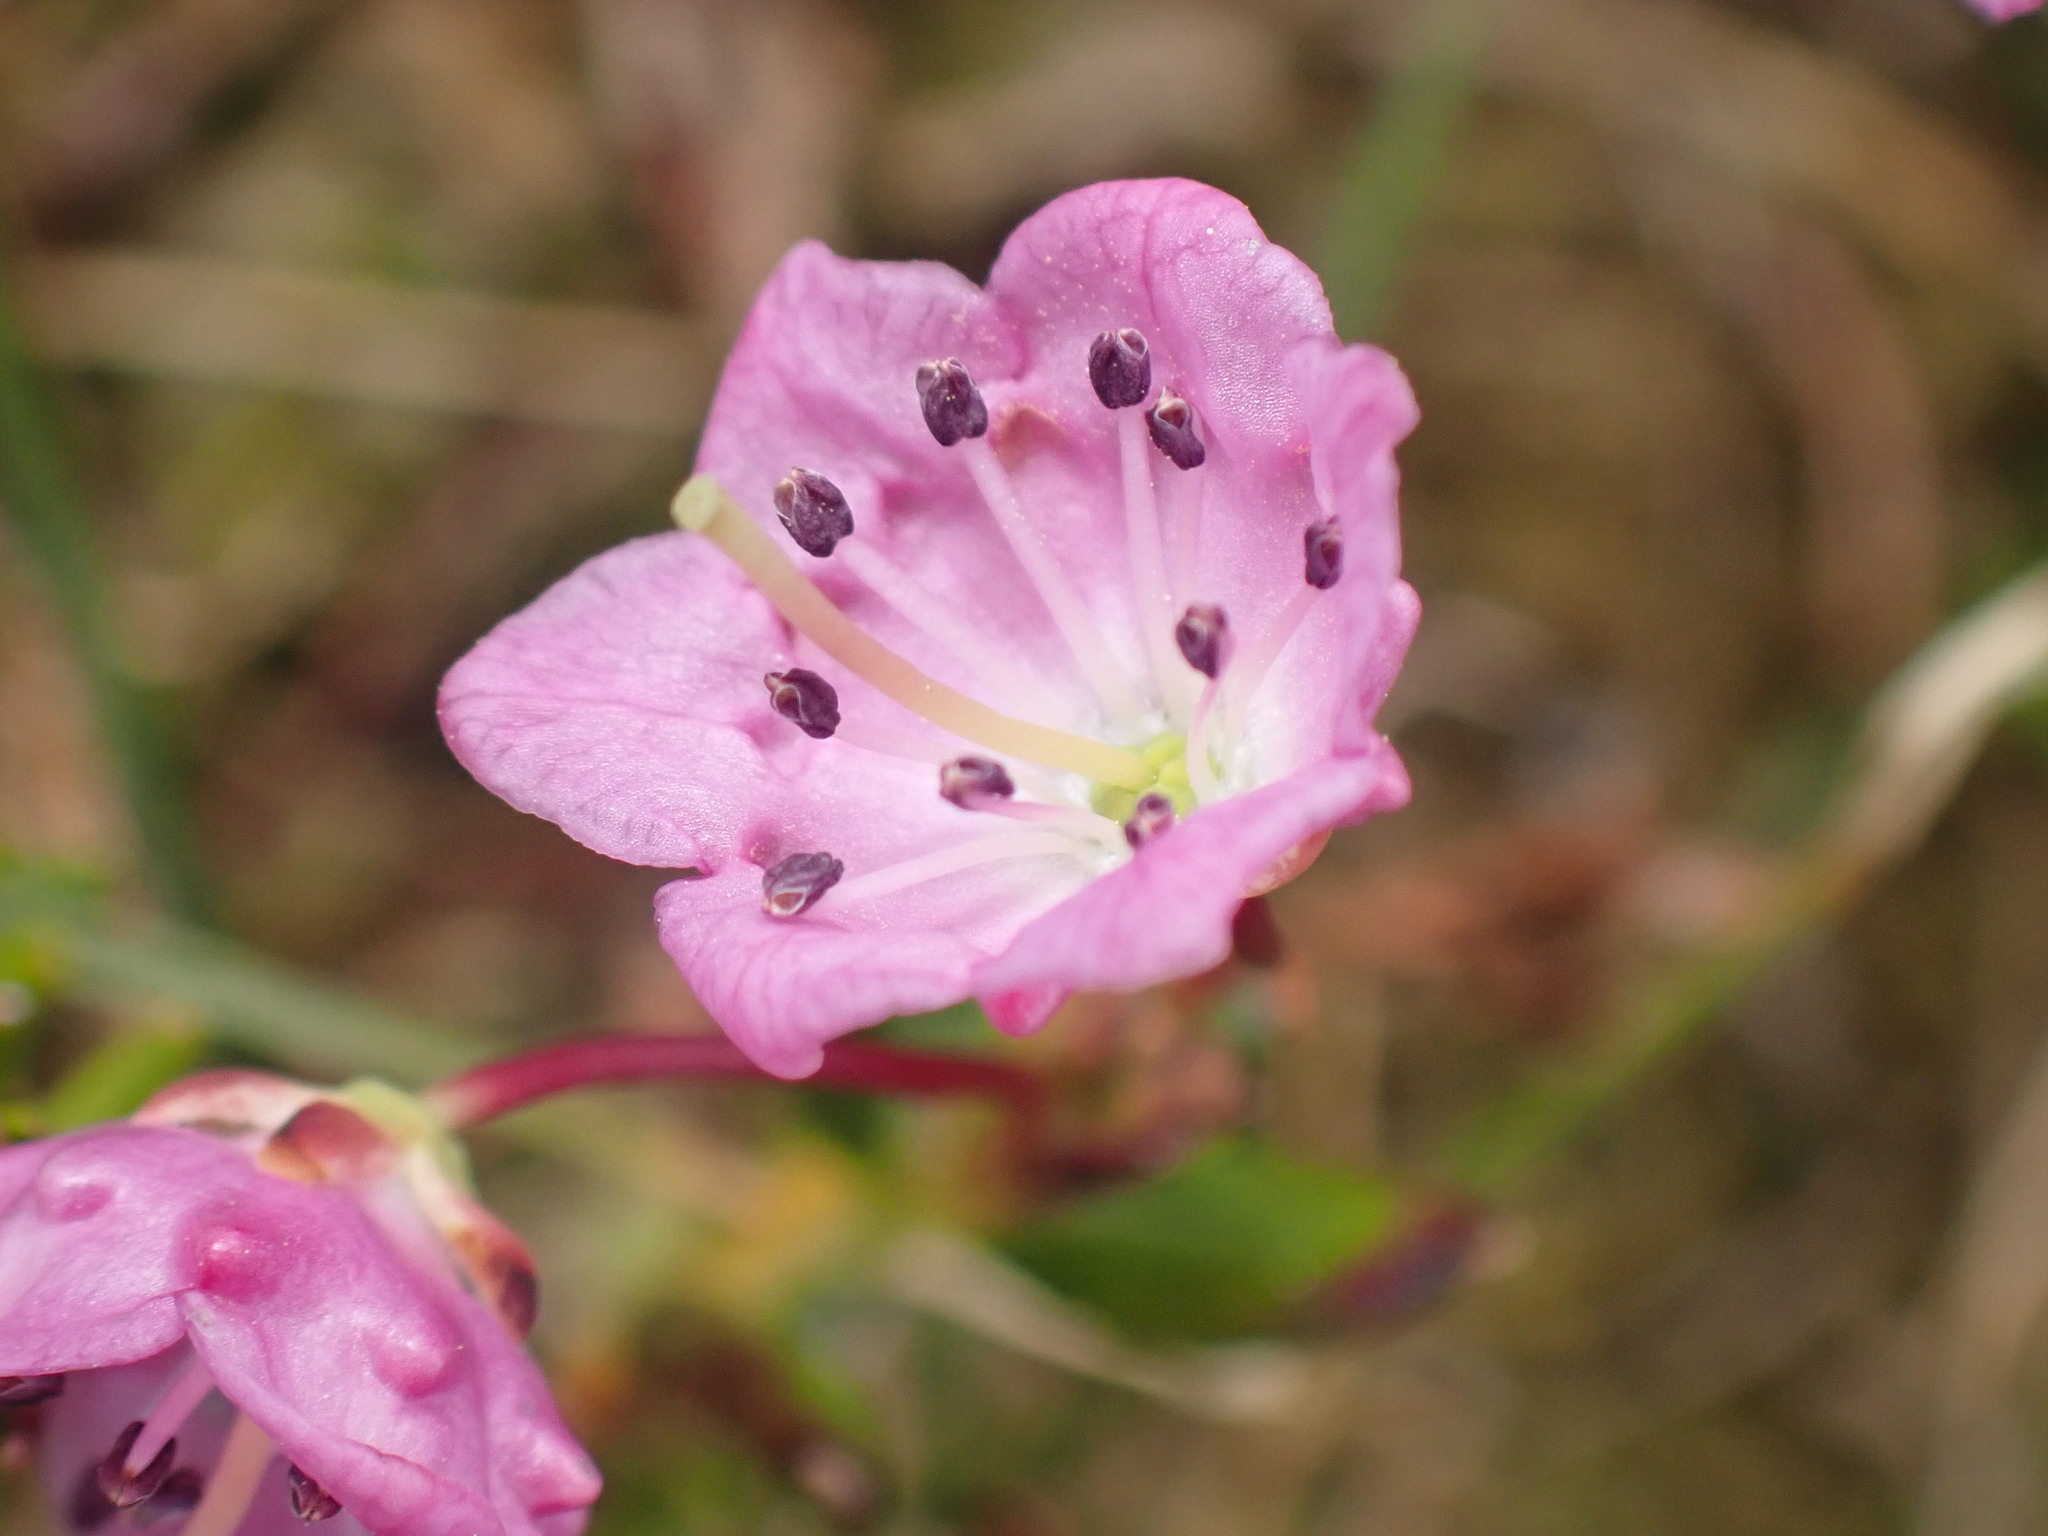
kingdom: Plantae
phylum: Tracheophyta
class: Magnoliopsida
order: Ericales
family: Ericaceae
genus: Kalmia
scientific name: Kalmia microphylla
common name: Alpine bog laurel
